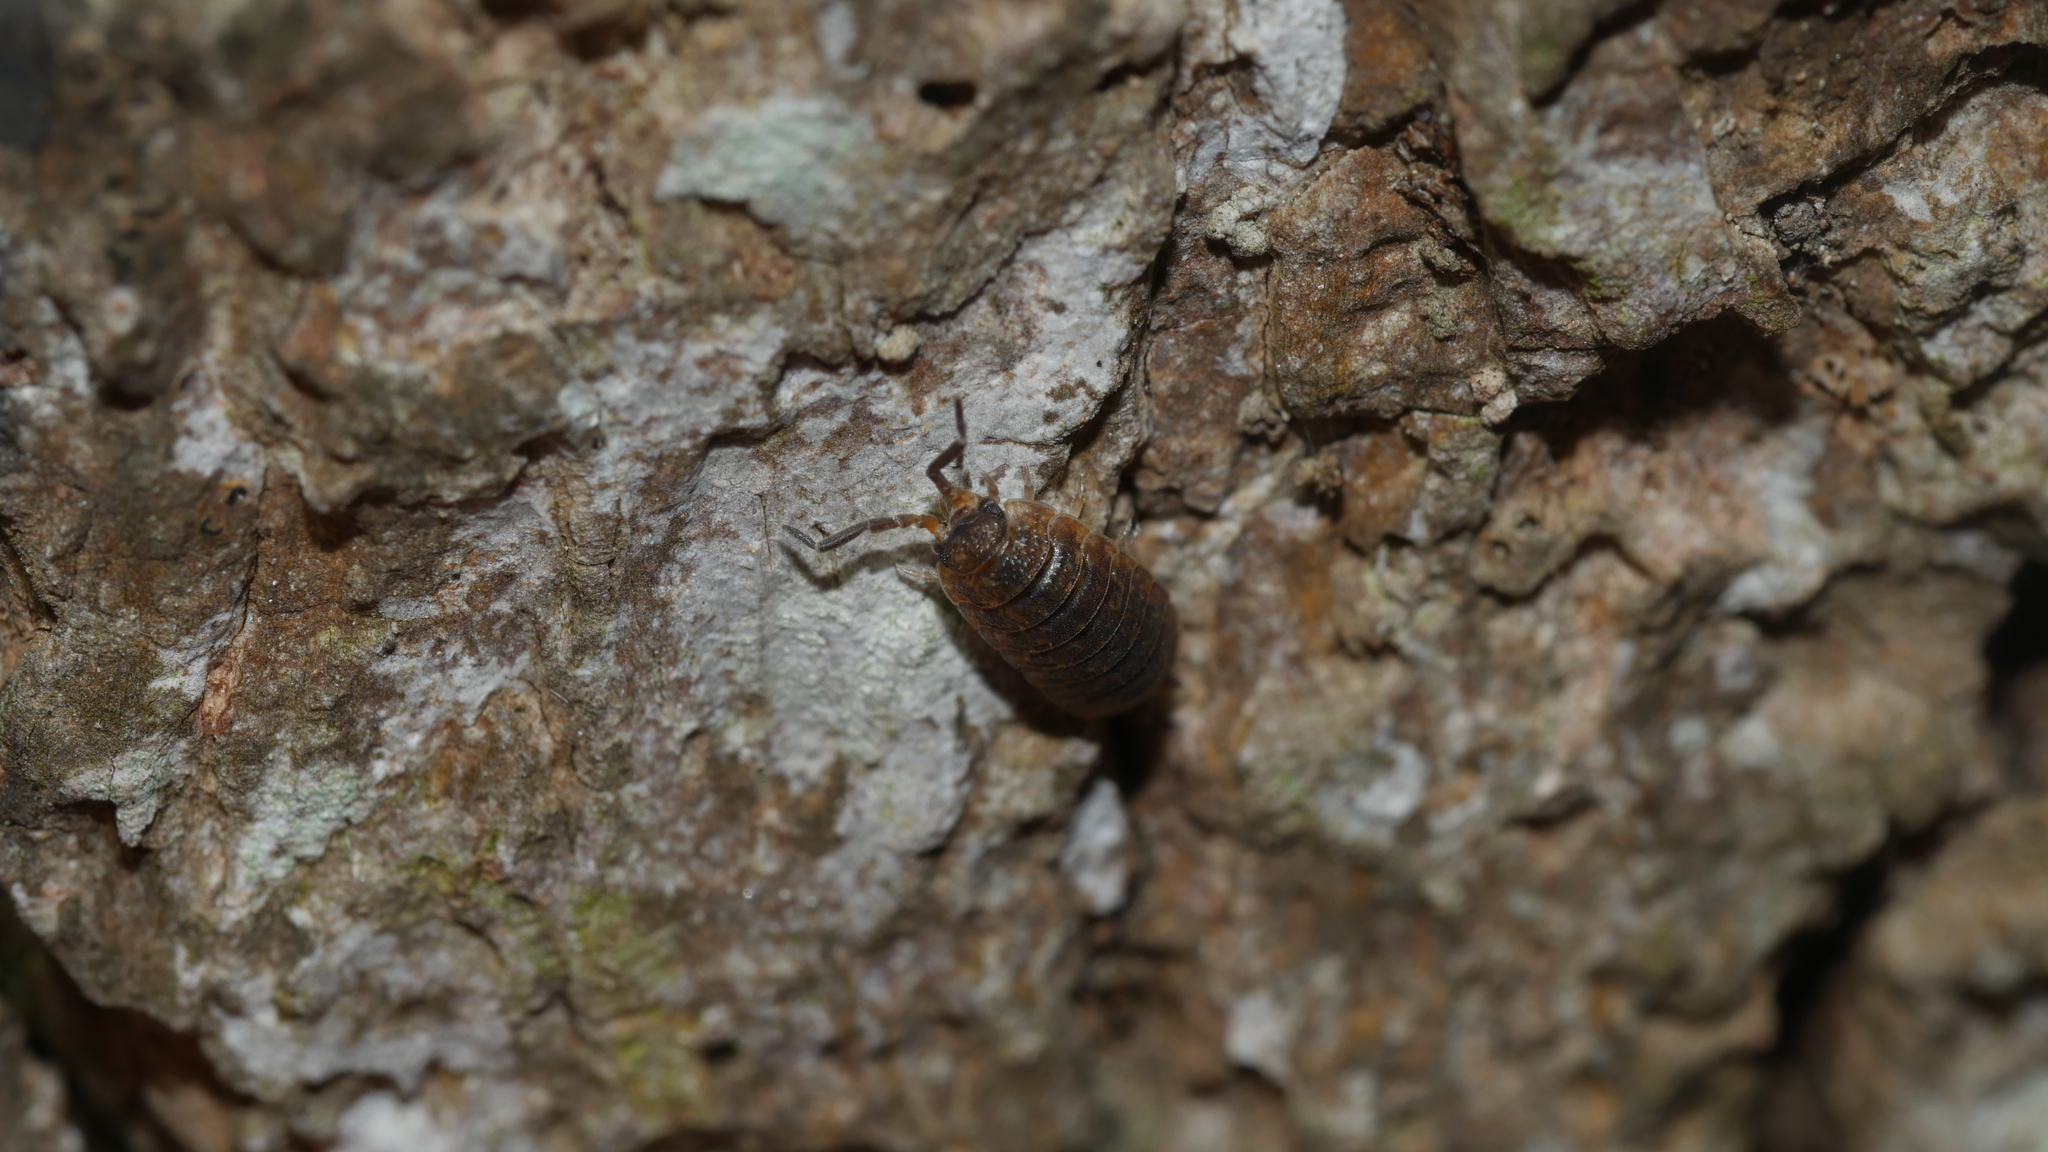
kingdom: Animalia
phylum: Arthropoda
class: Malacostraca
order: Isopoda
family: Porcellionidae
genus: Porcellio
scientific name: Porcellio scaber
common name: Common rough woodlouse
